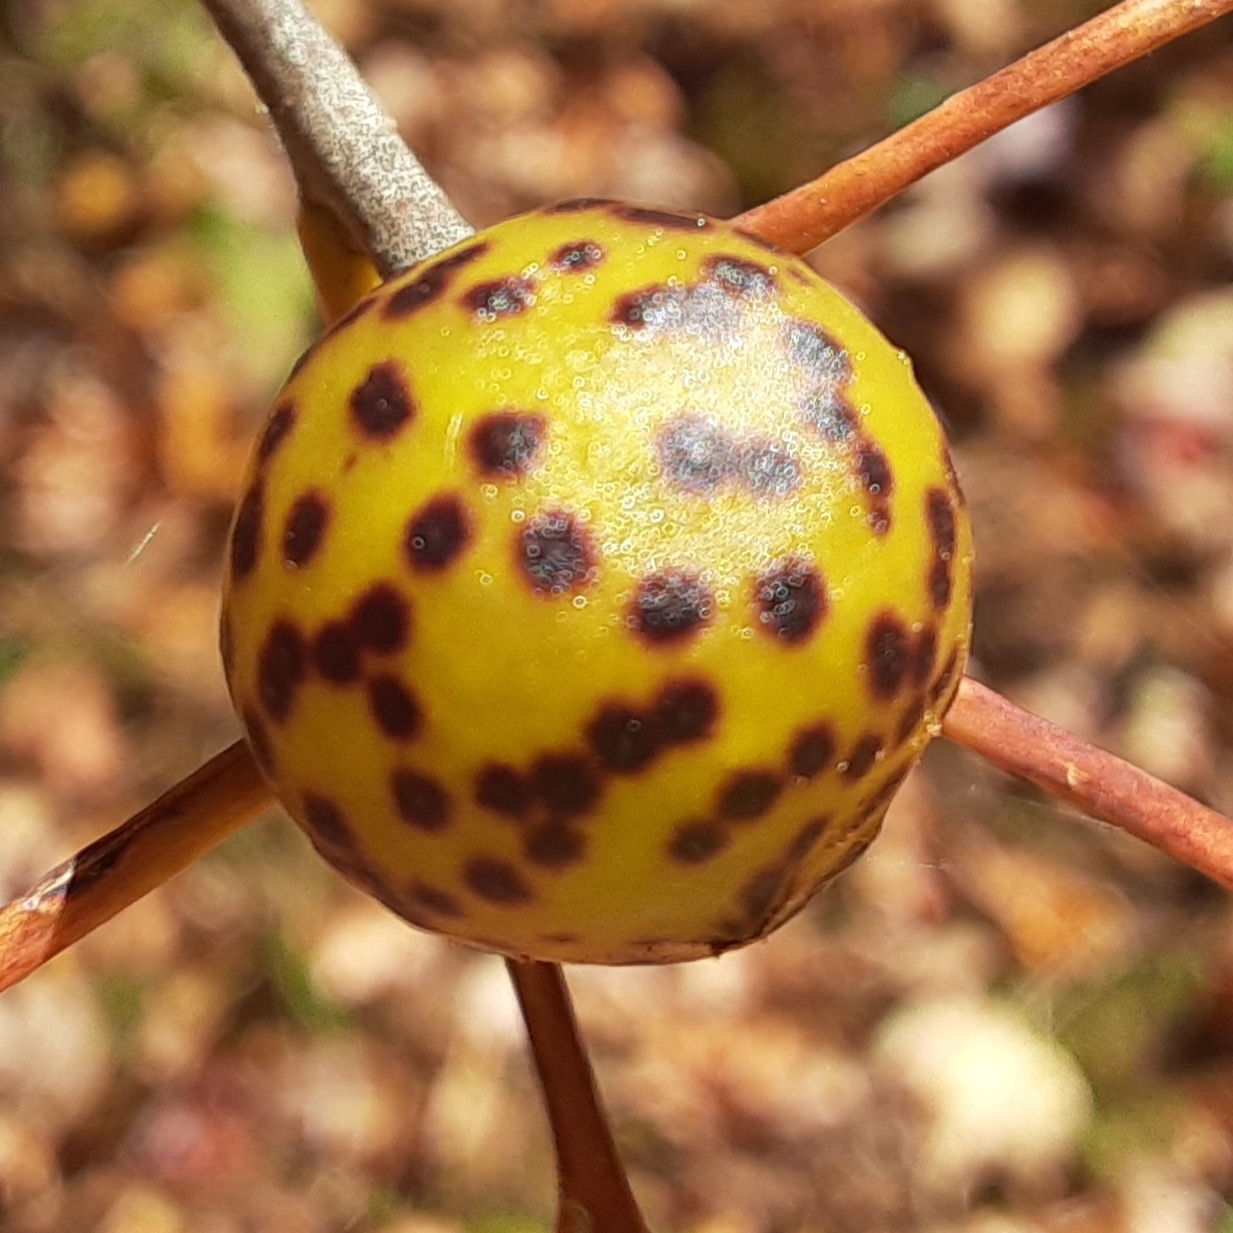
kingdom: Animalia
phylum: Arthropoda
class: Insecta
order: Hymenoptera
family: Cynipidae
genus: Amphibolips
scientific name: Amphibolips
